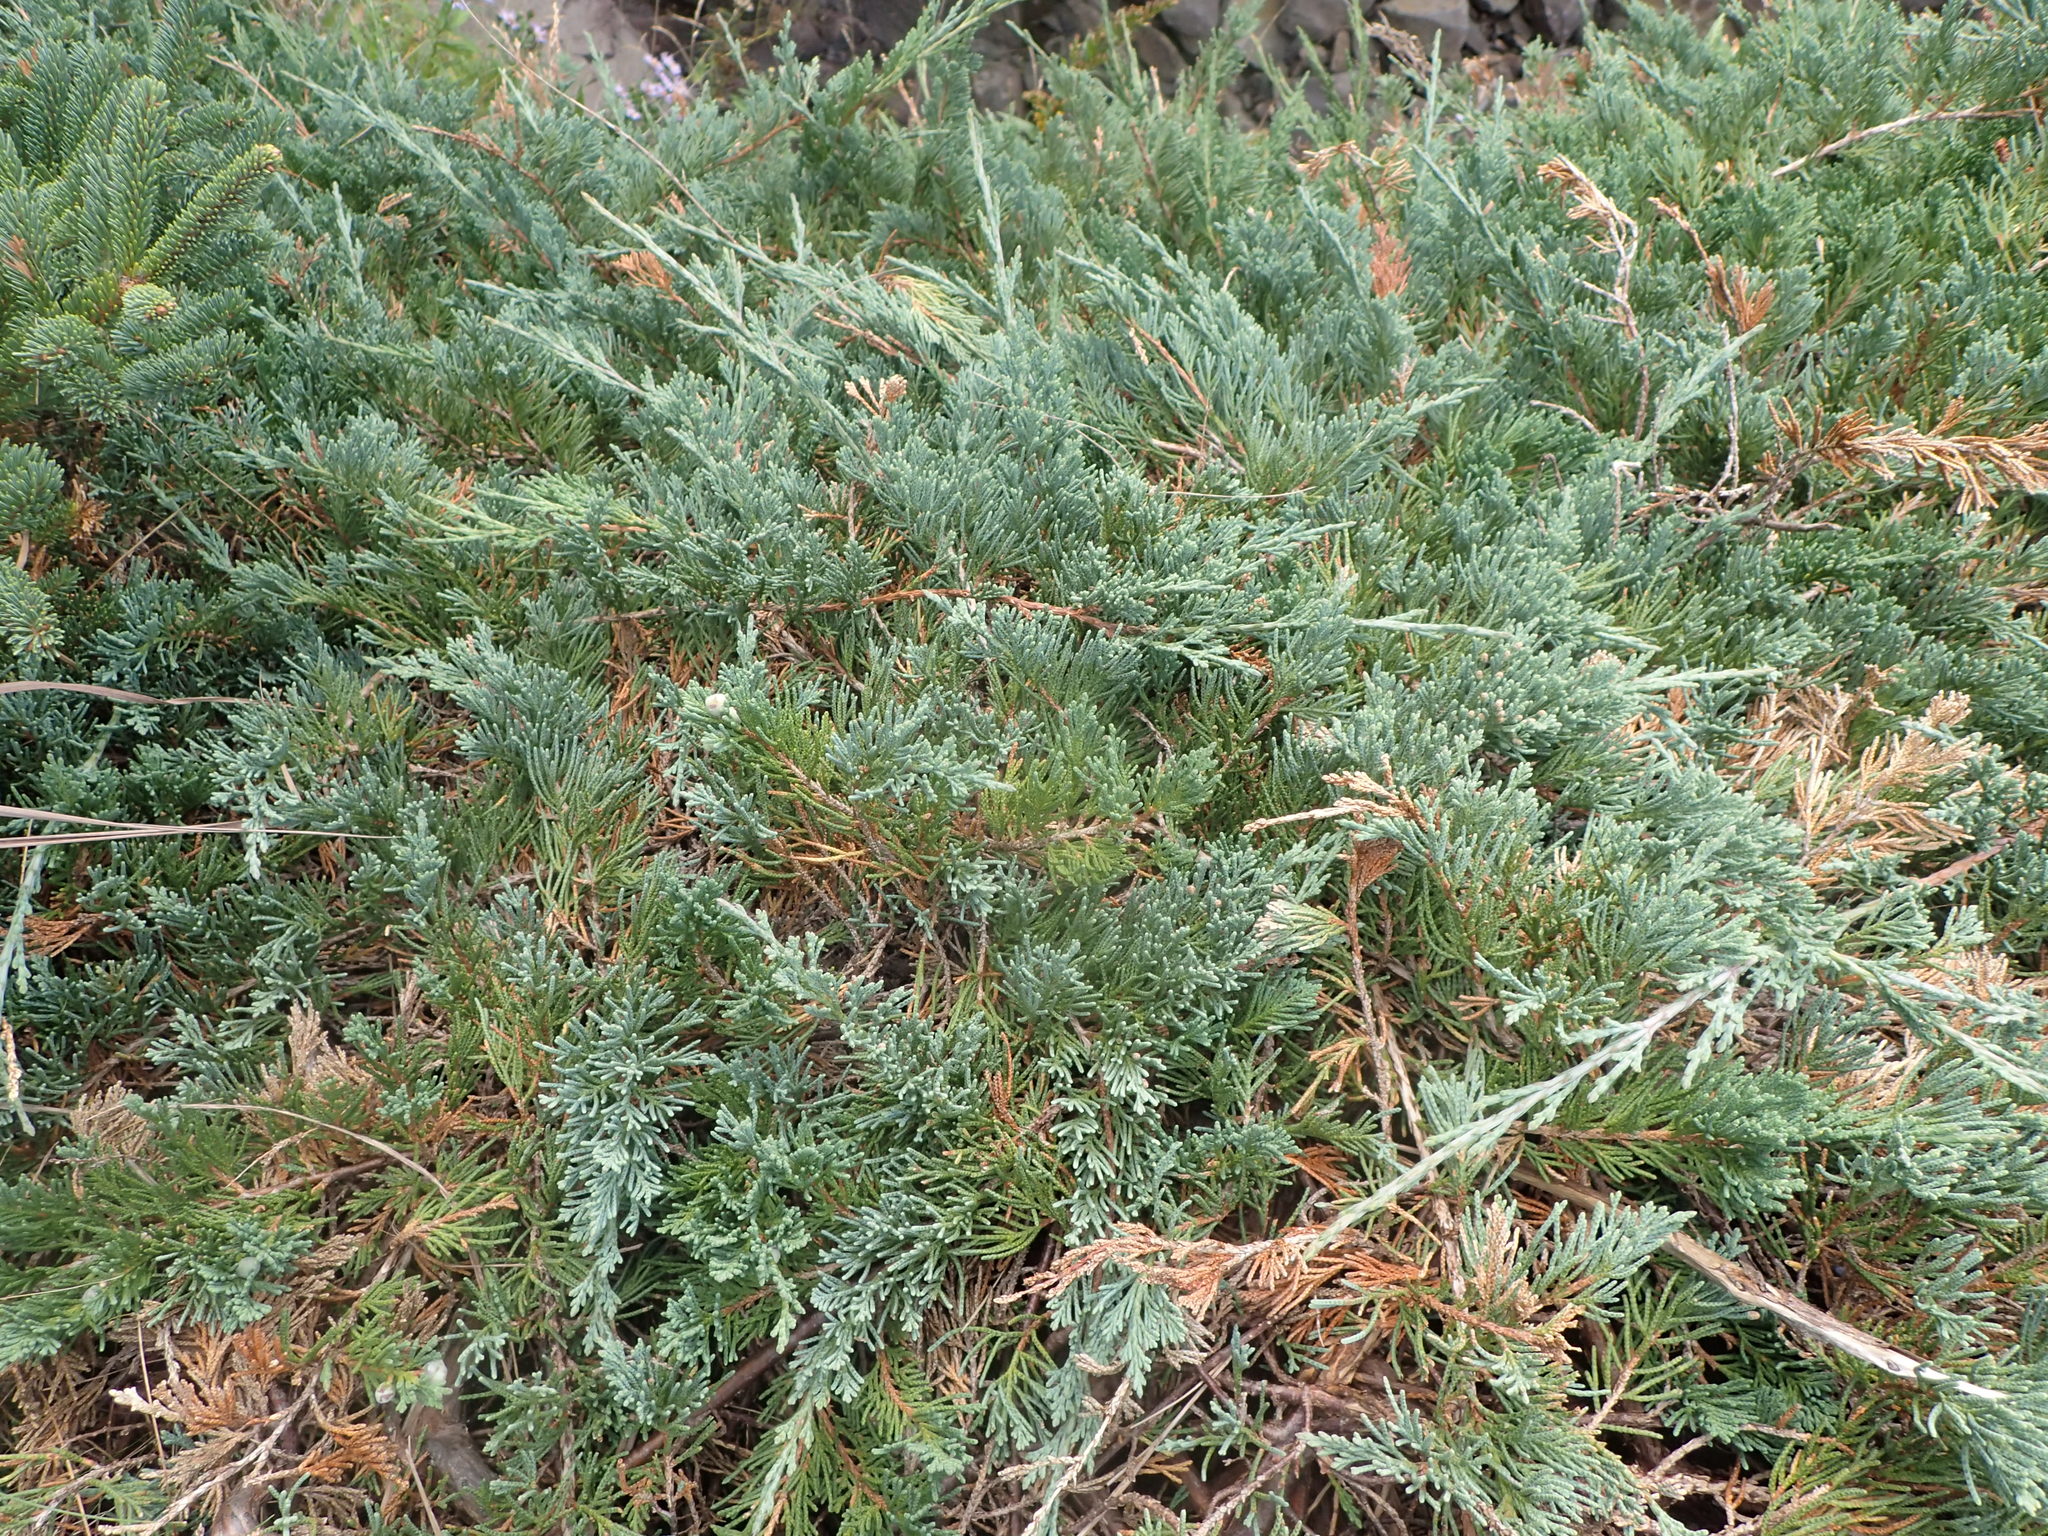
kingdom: Plantae
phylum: Tracheophyta
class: Pinopsida
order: Pinales
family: Cupressaceae
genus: Juniperus
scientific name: Juniperus horizontalis
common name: Creeping juniper
